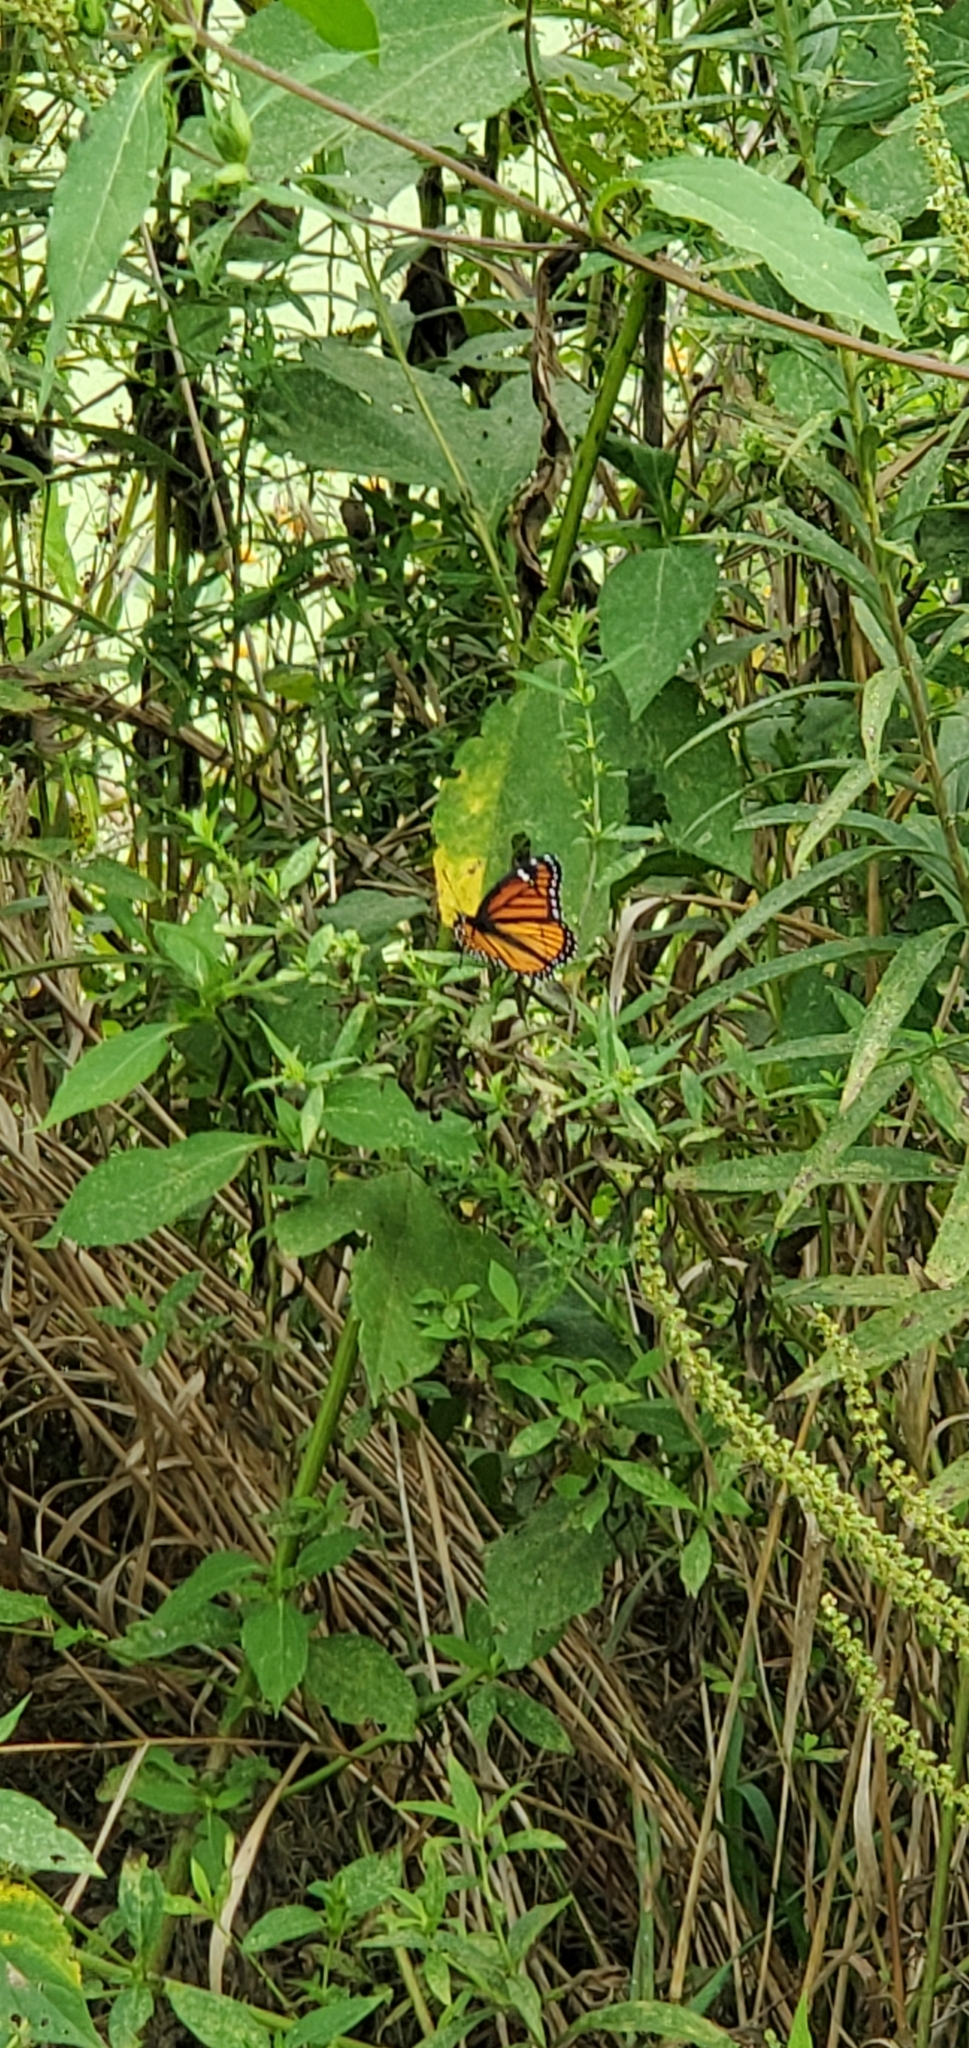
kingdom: Animalia
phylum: Arthropoda
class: Insecta
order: Lepidoptera
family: Nymphalidae
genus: Limenitis
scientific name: Limenitis archippus
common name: Viceroy
